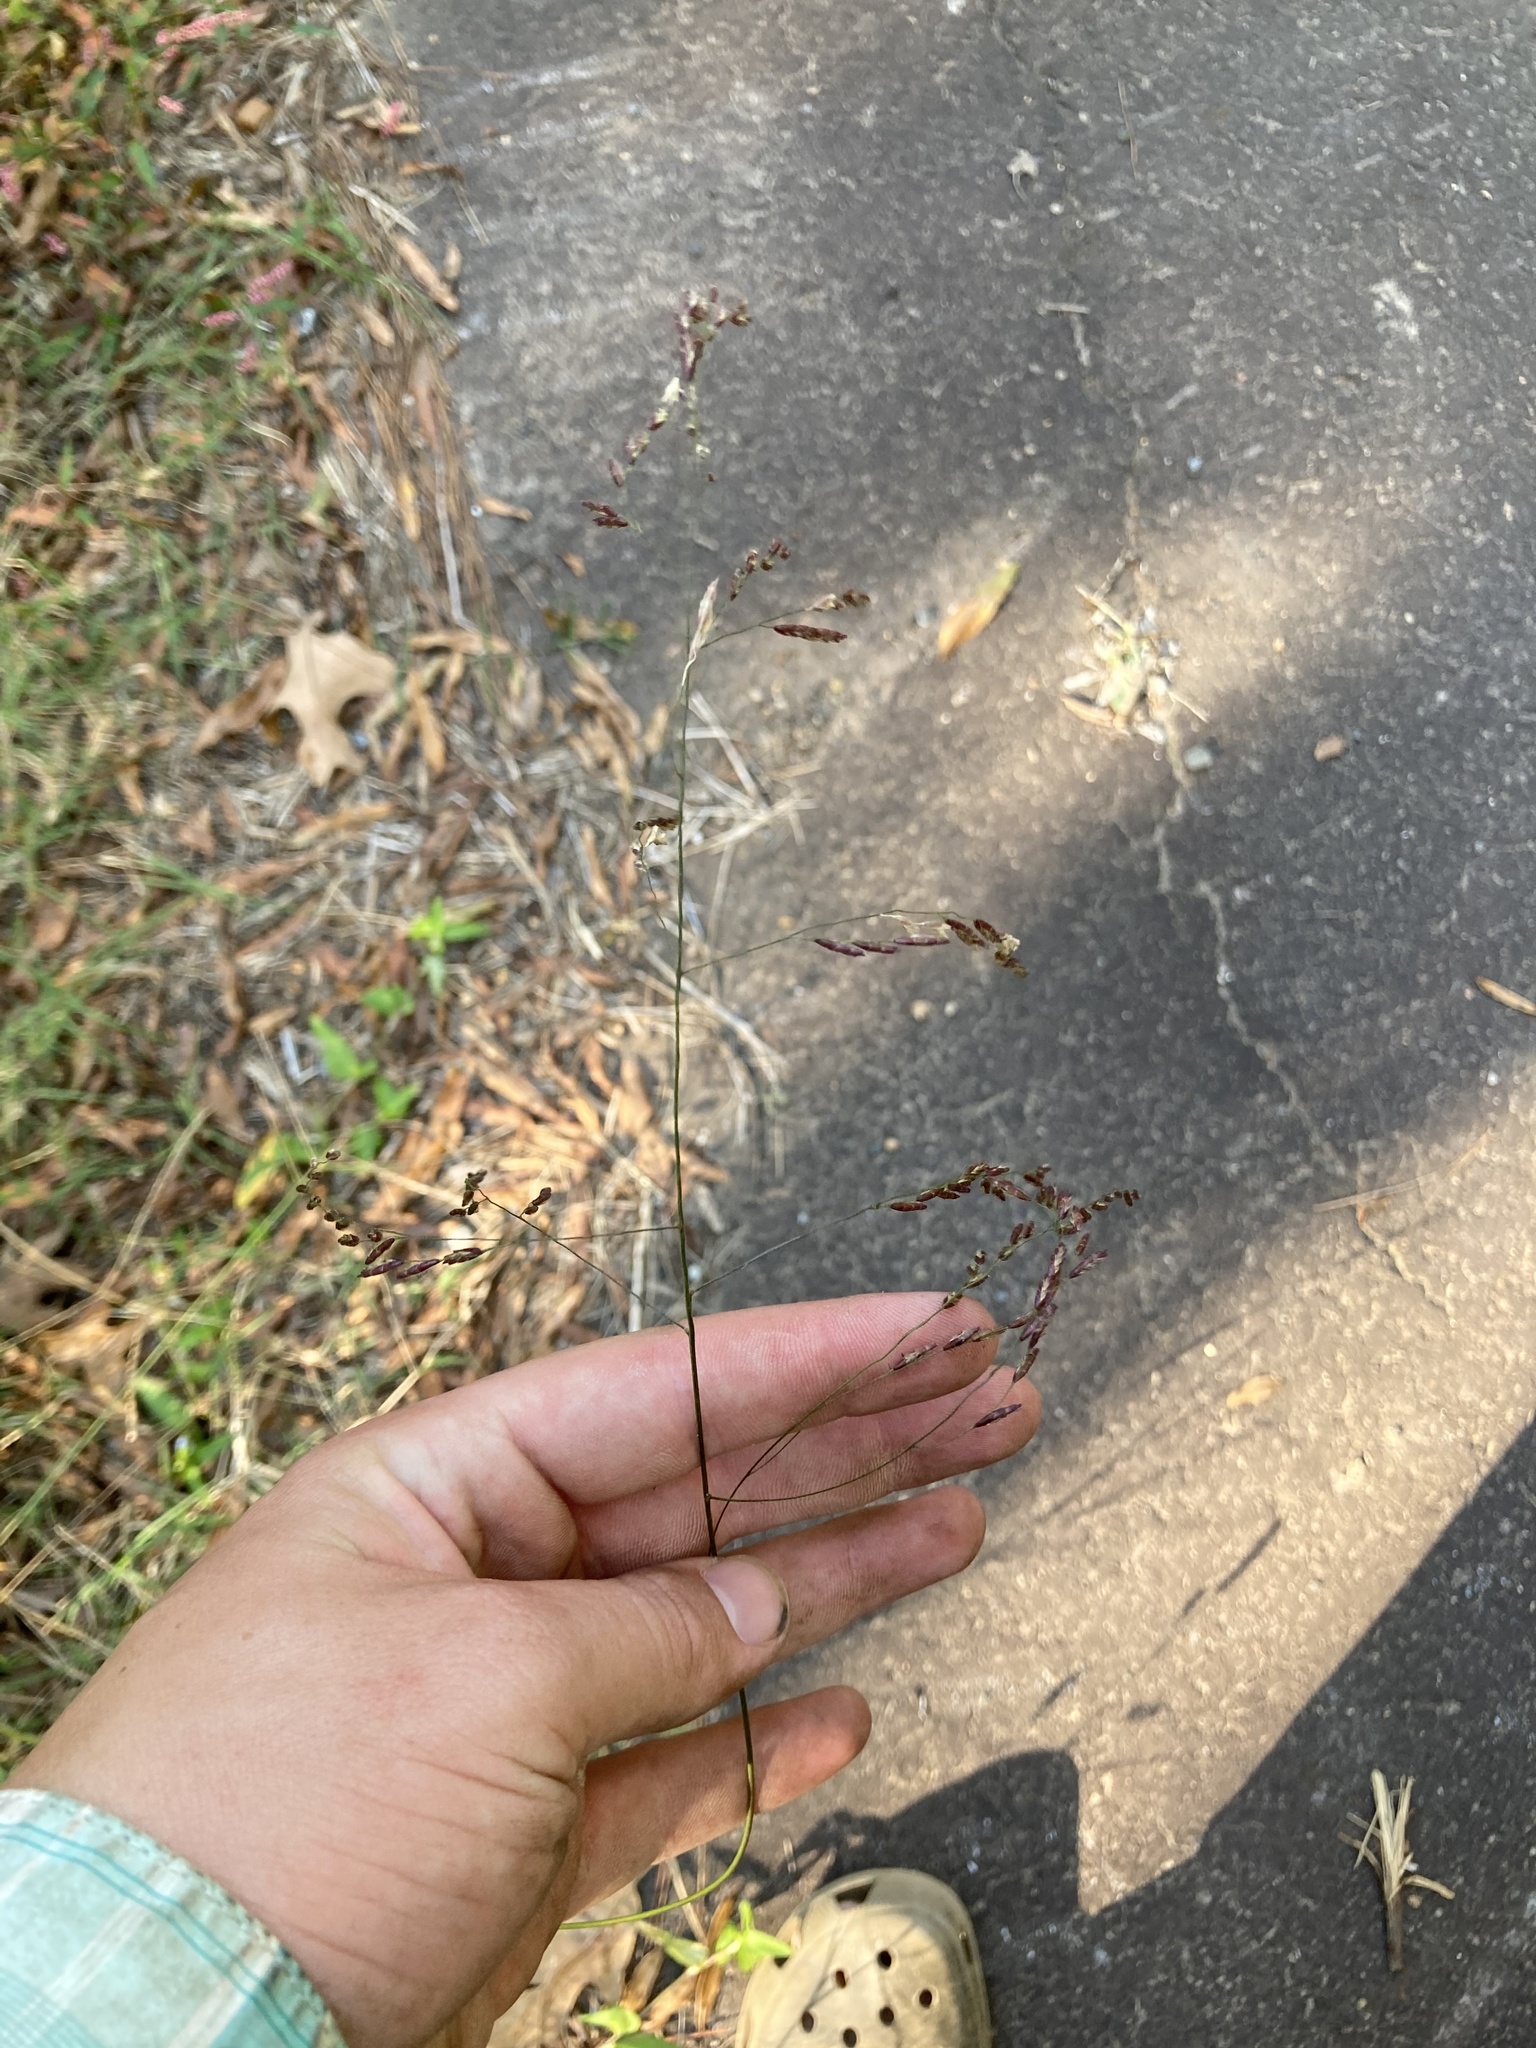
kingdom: Plantae
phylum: Tracheophyta
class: Liliopsida
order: Poales
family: Poaceae
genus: Tridens
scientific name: Tridens flavus
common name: Purpletop
